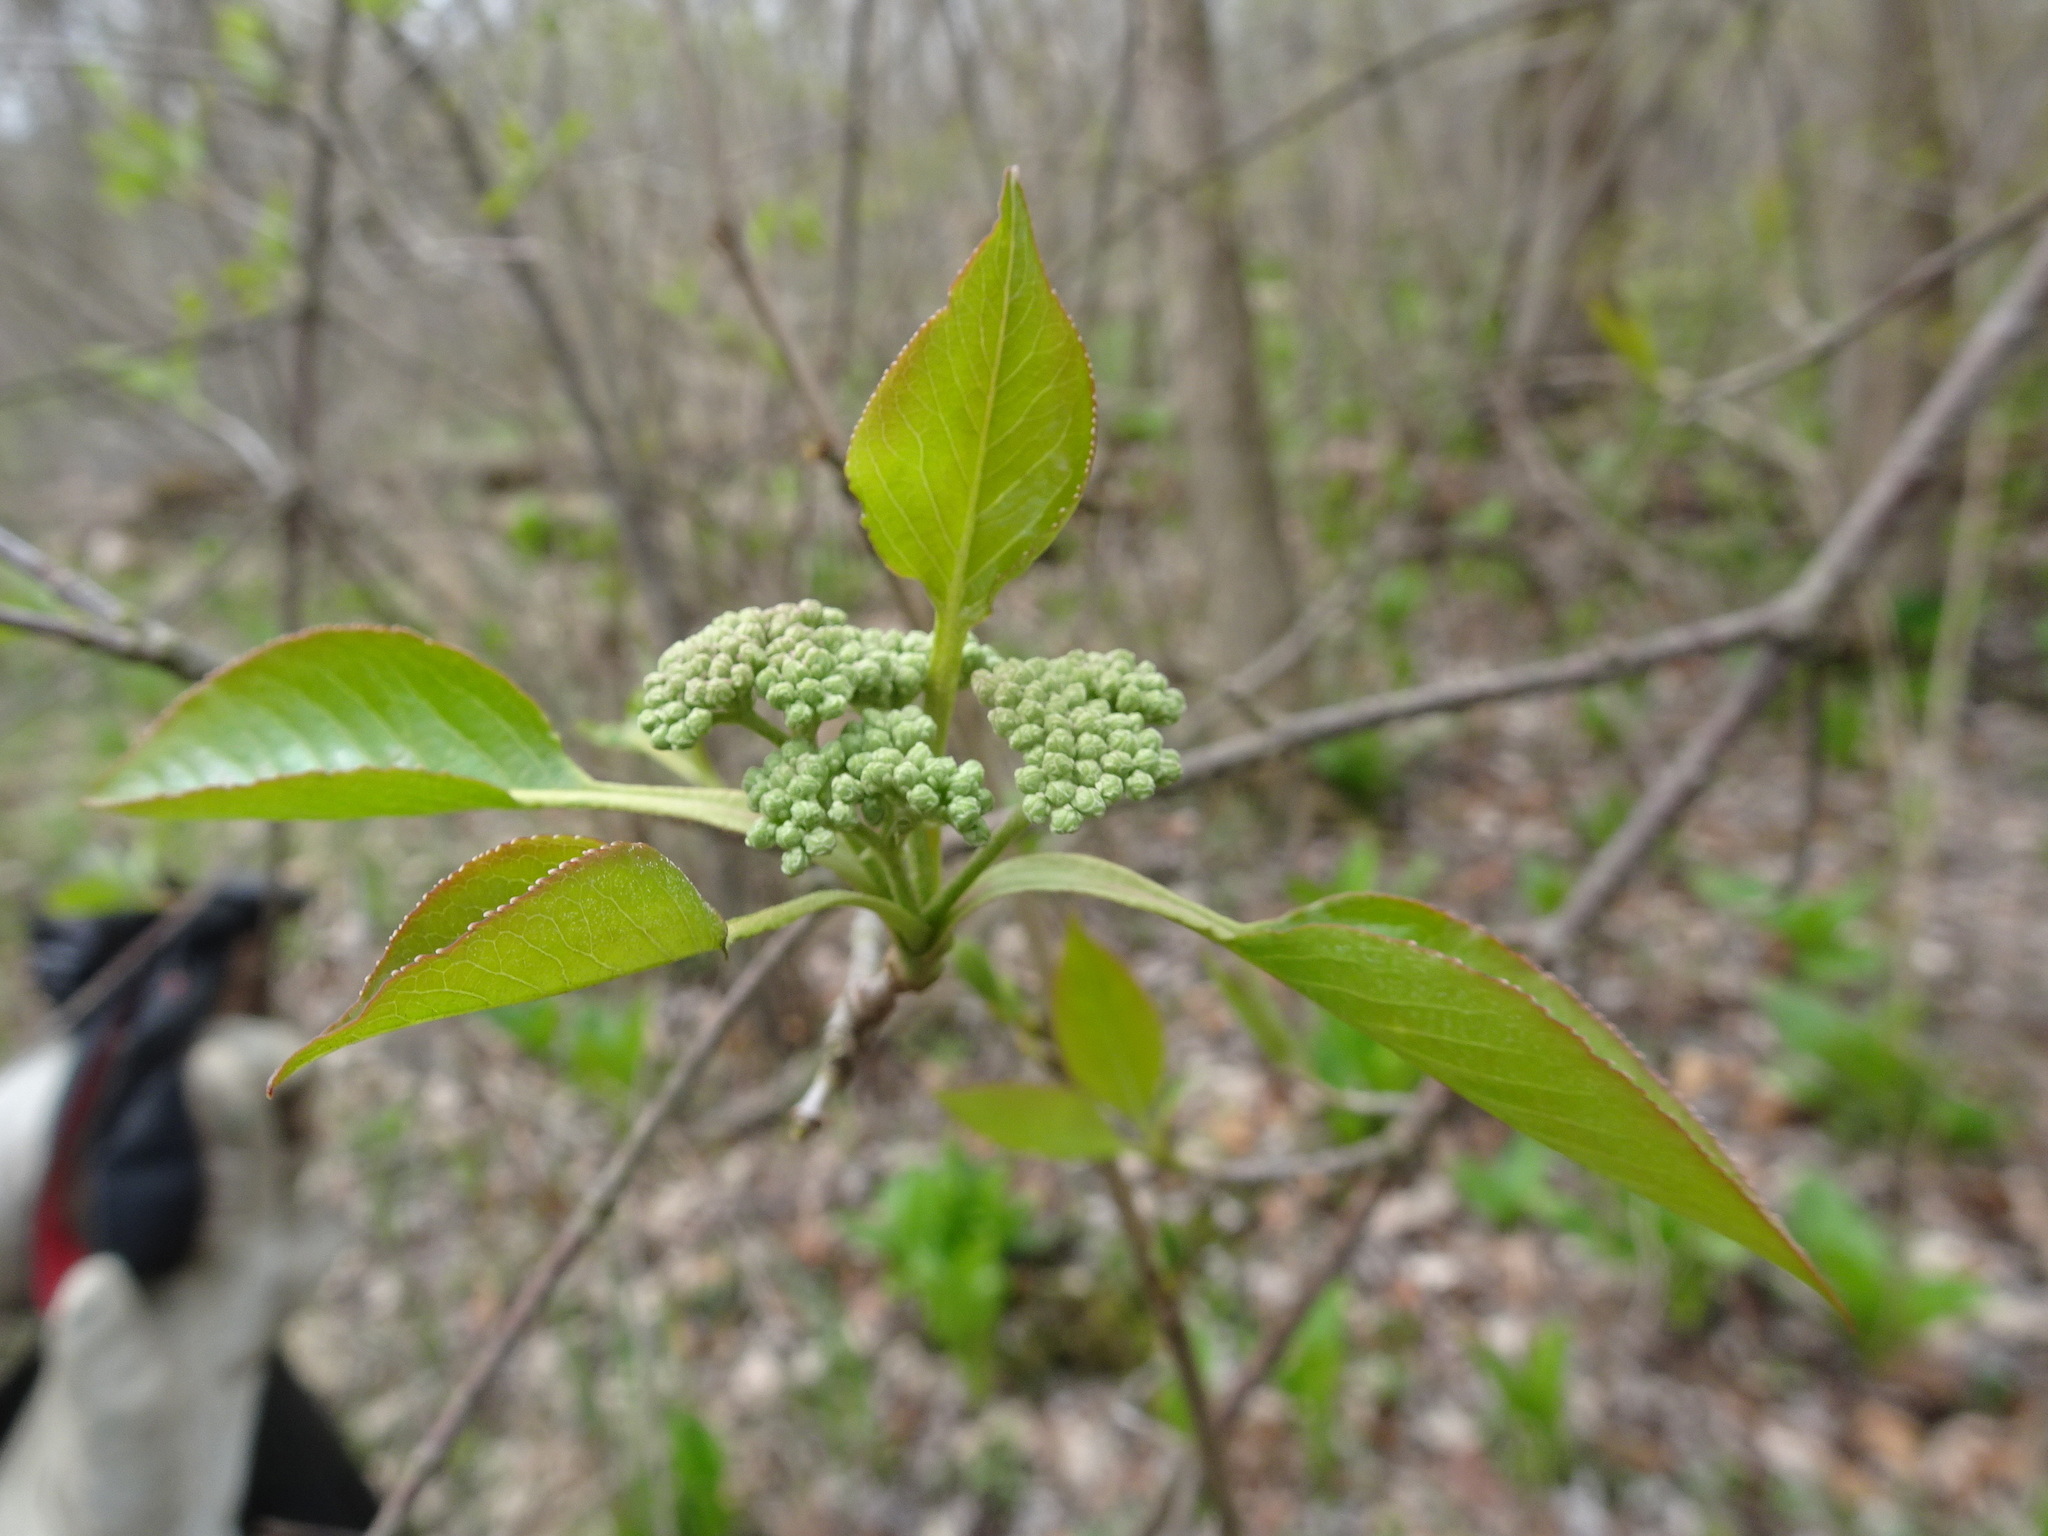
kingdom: Plantae
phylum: Tracheophyta
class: Magnoliopsida
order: Dipsacales
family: Viburnaceae
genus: Viburnum
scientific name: Viburnum lentago
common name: Black haw
